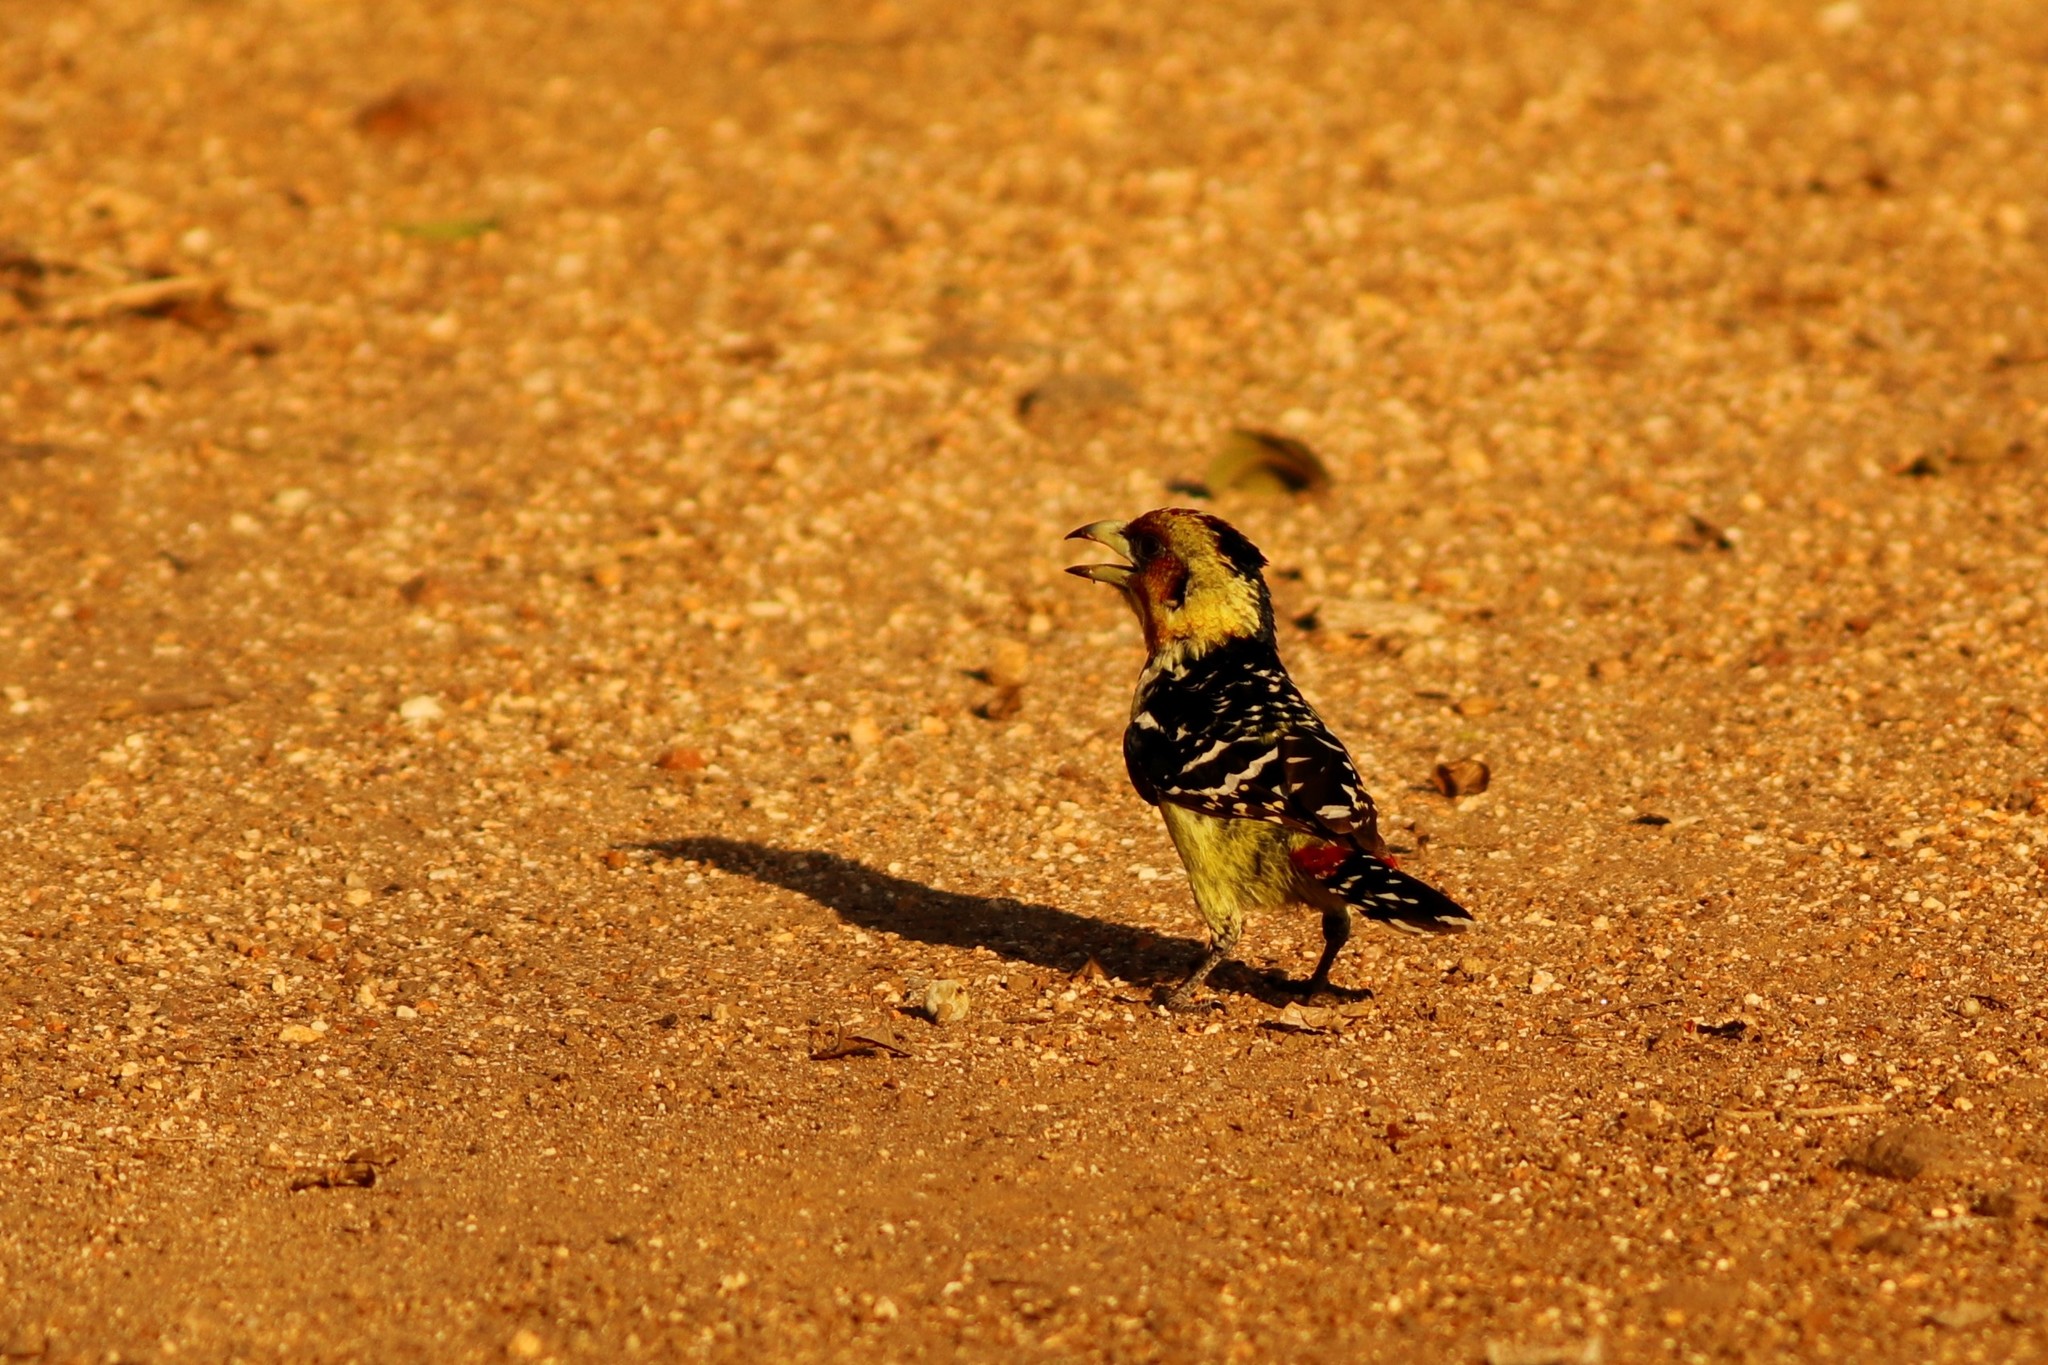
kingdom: Animalia
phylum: Chordata
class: Aves
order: Piciformes
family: Lybiidae
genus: Trachyphonus
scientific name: Trachyphonus vaillantii
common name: Crested barbet
